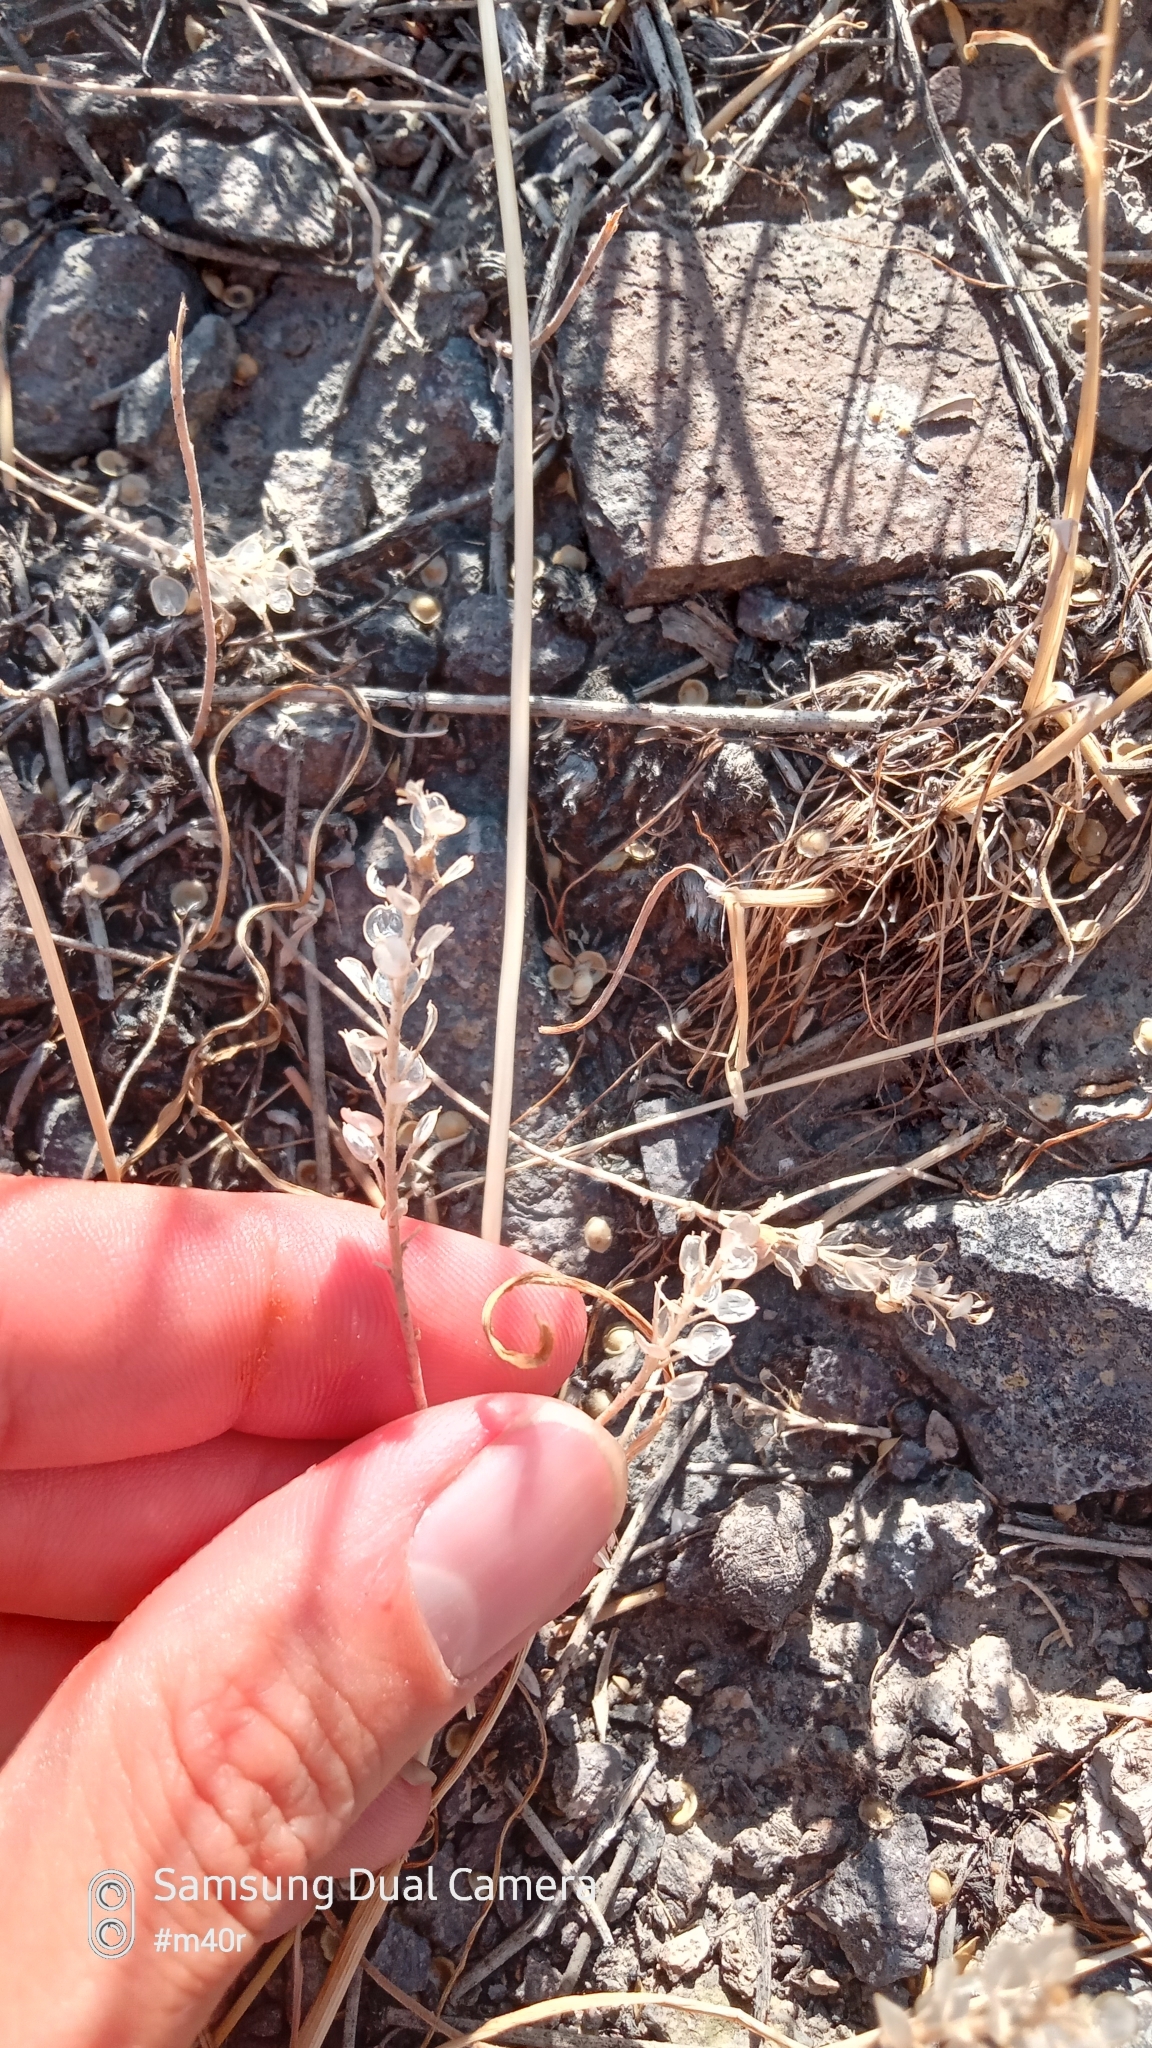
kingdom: Plantae
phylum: Tracheophyta
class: Magnoliopsida
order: Brassicales
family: Brassicaceae
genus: Alyssum
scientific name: Alyssum turkestanicum
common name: Desert alyssum
